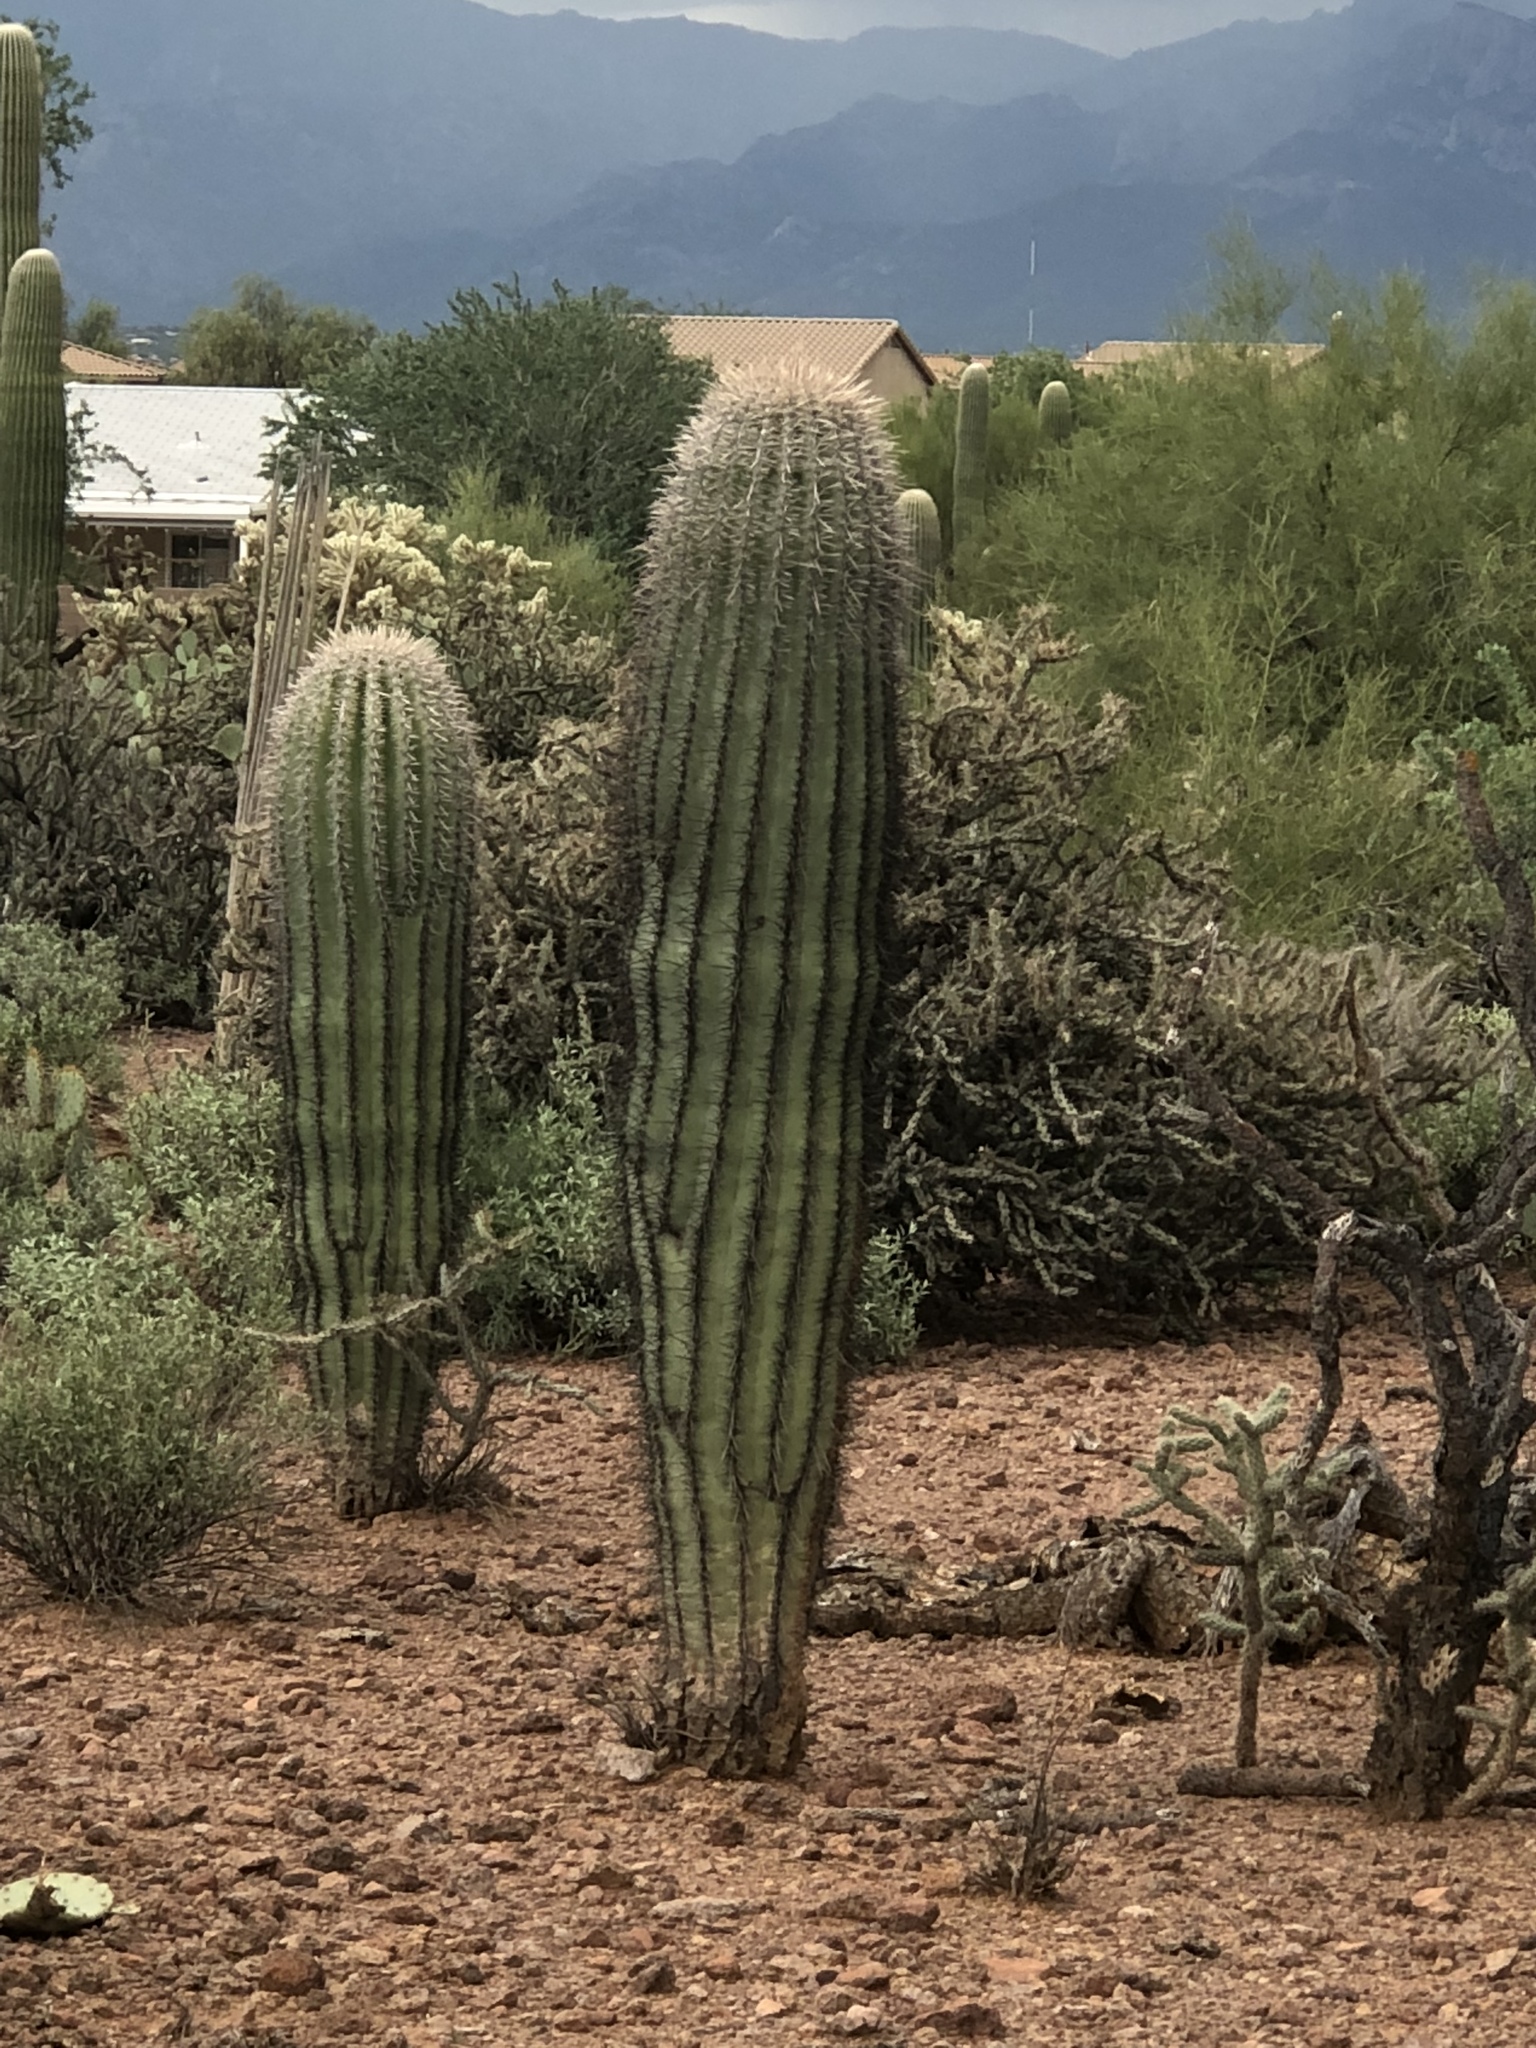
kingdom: Plantae
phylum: Tracheophyta
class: Magnoliopsida
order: Caryophyllales
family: Cactaceae
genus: Carnegiea
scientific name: Carnegiea gigantea
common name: Saguaro
